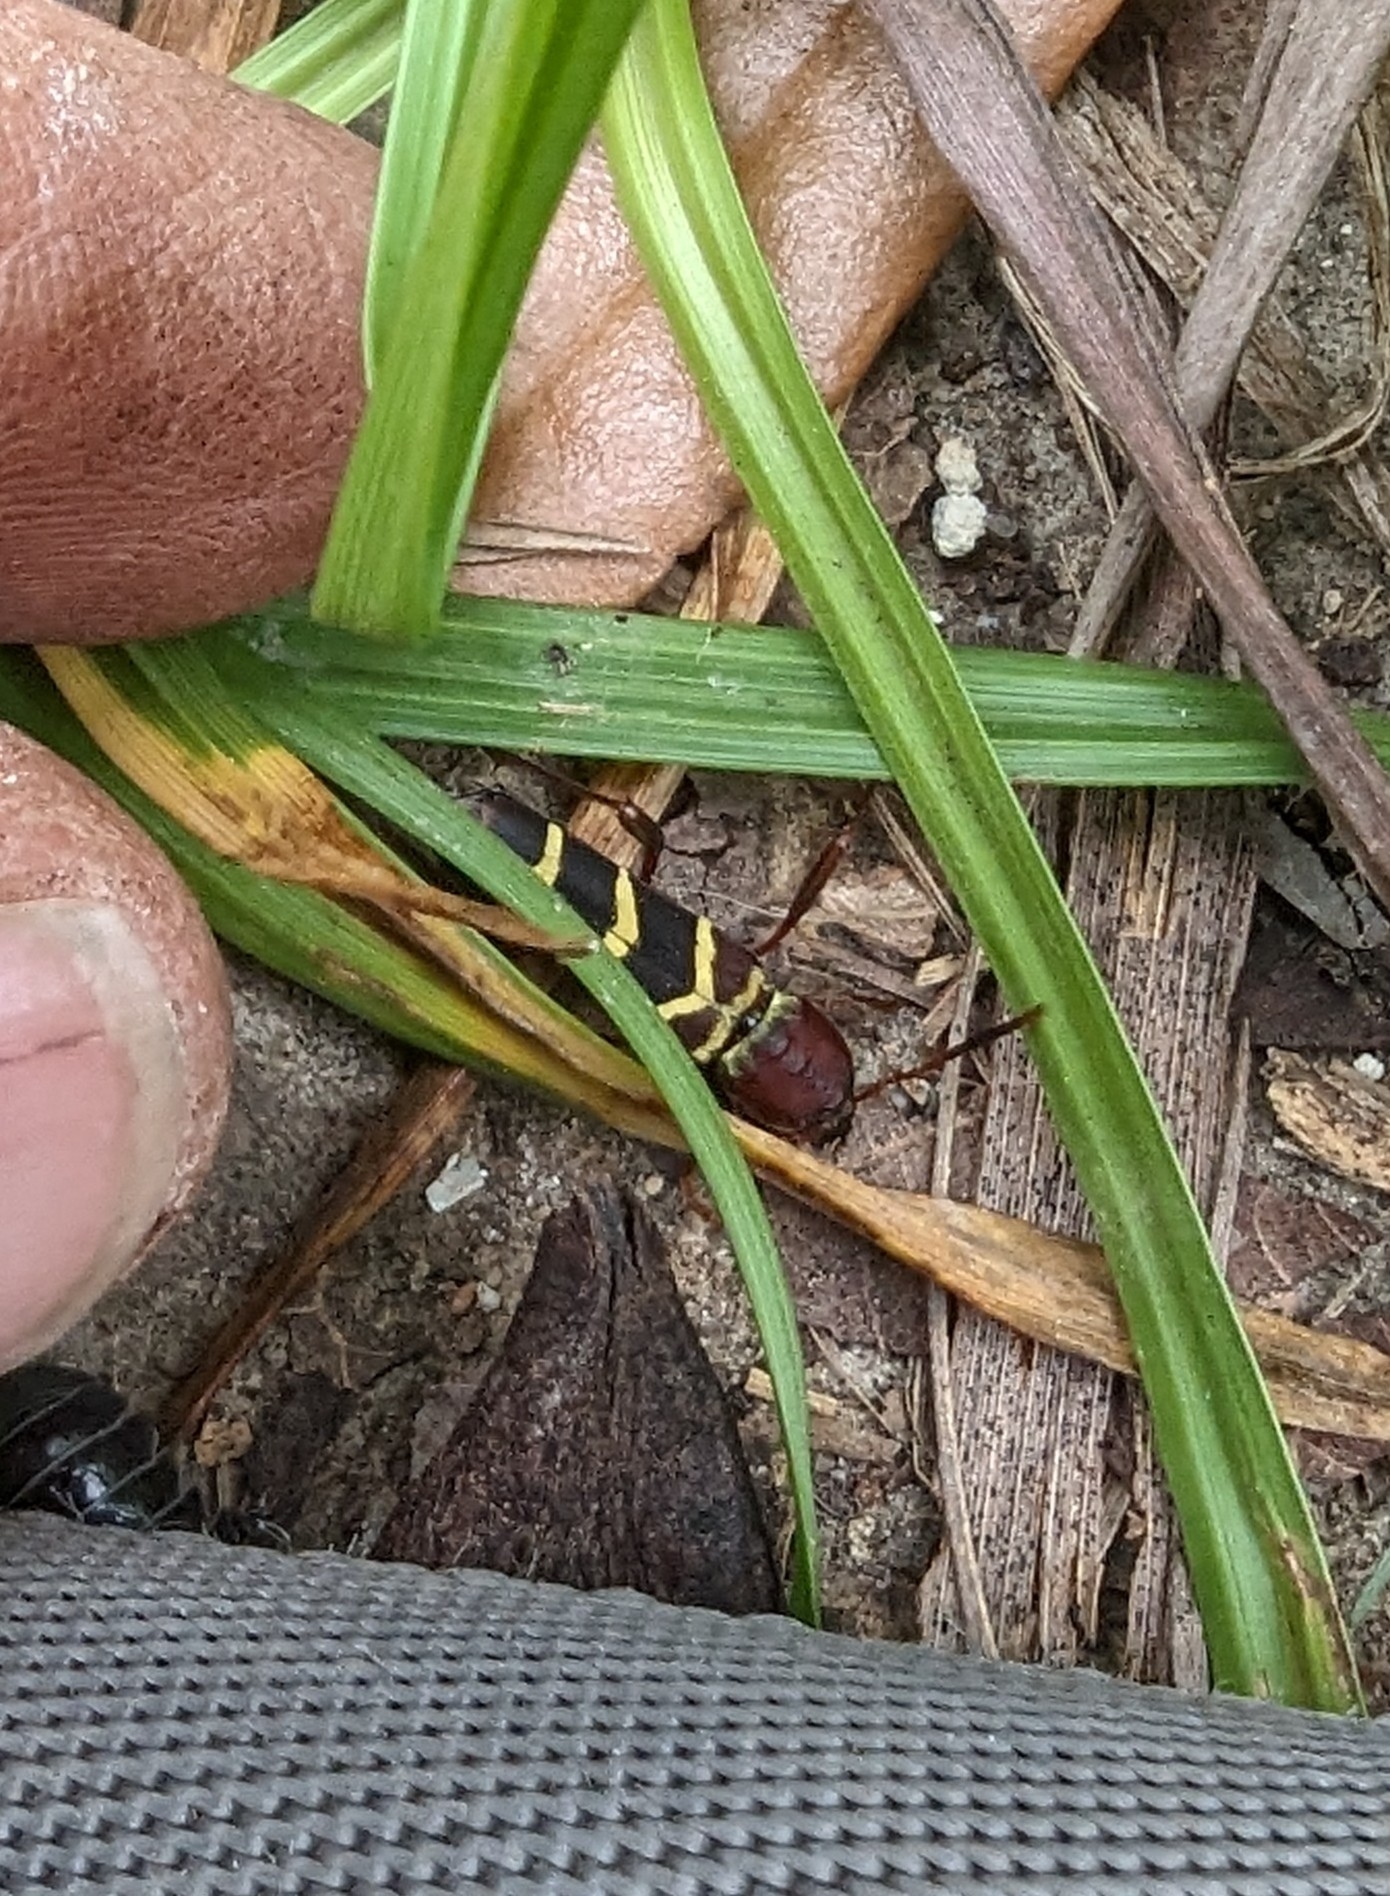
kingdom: Animalia
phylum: Arthropoda
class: Insecta
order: Coleoptera
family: Cerambycidae
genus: Neoclytus
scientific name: Neoclytus acuminatus
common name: Read-headed ash borer
